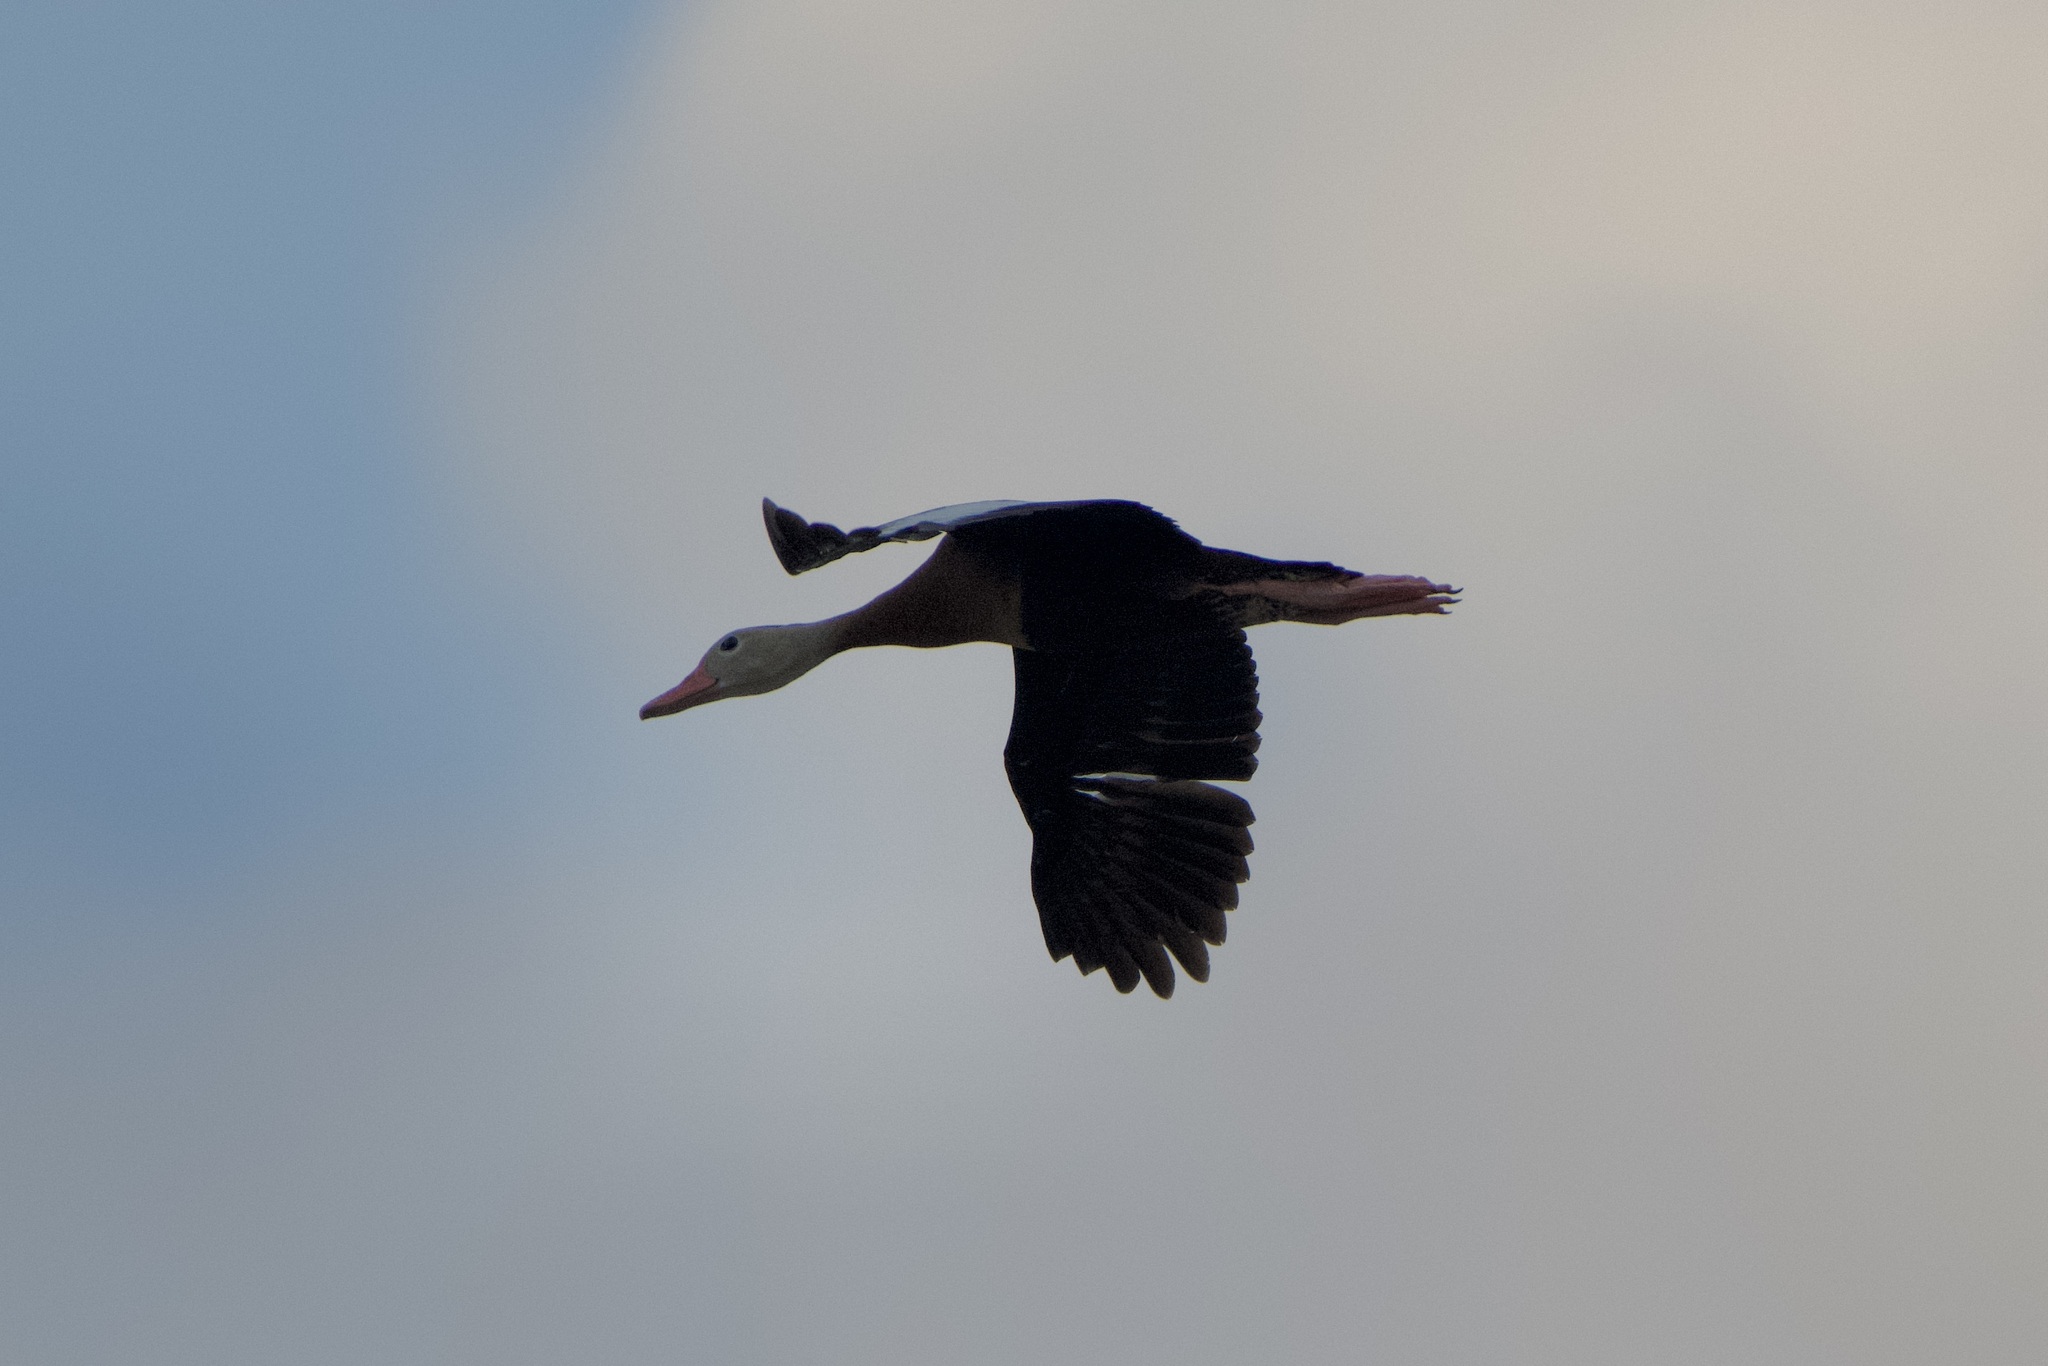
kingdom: Animalia
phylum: Chordata
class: Aves
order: Anseriformes
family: Anatidae
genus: Dendrocygna
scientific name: Dendrocygna autumnalis
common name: Black-bellied whistling duck
